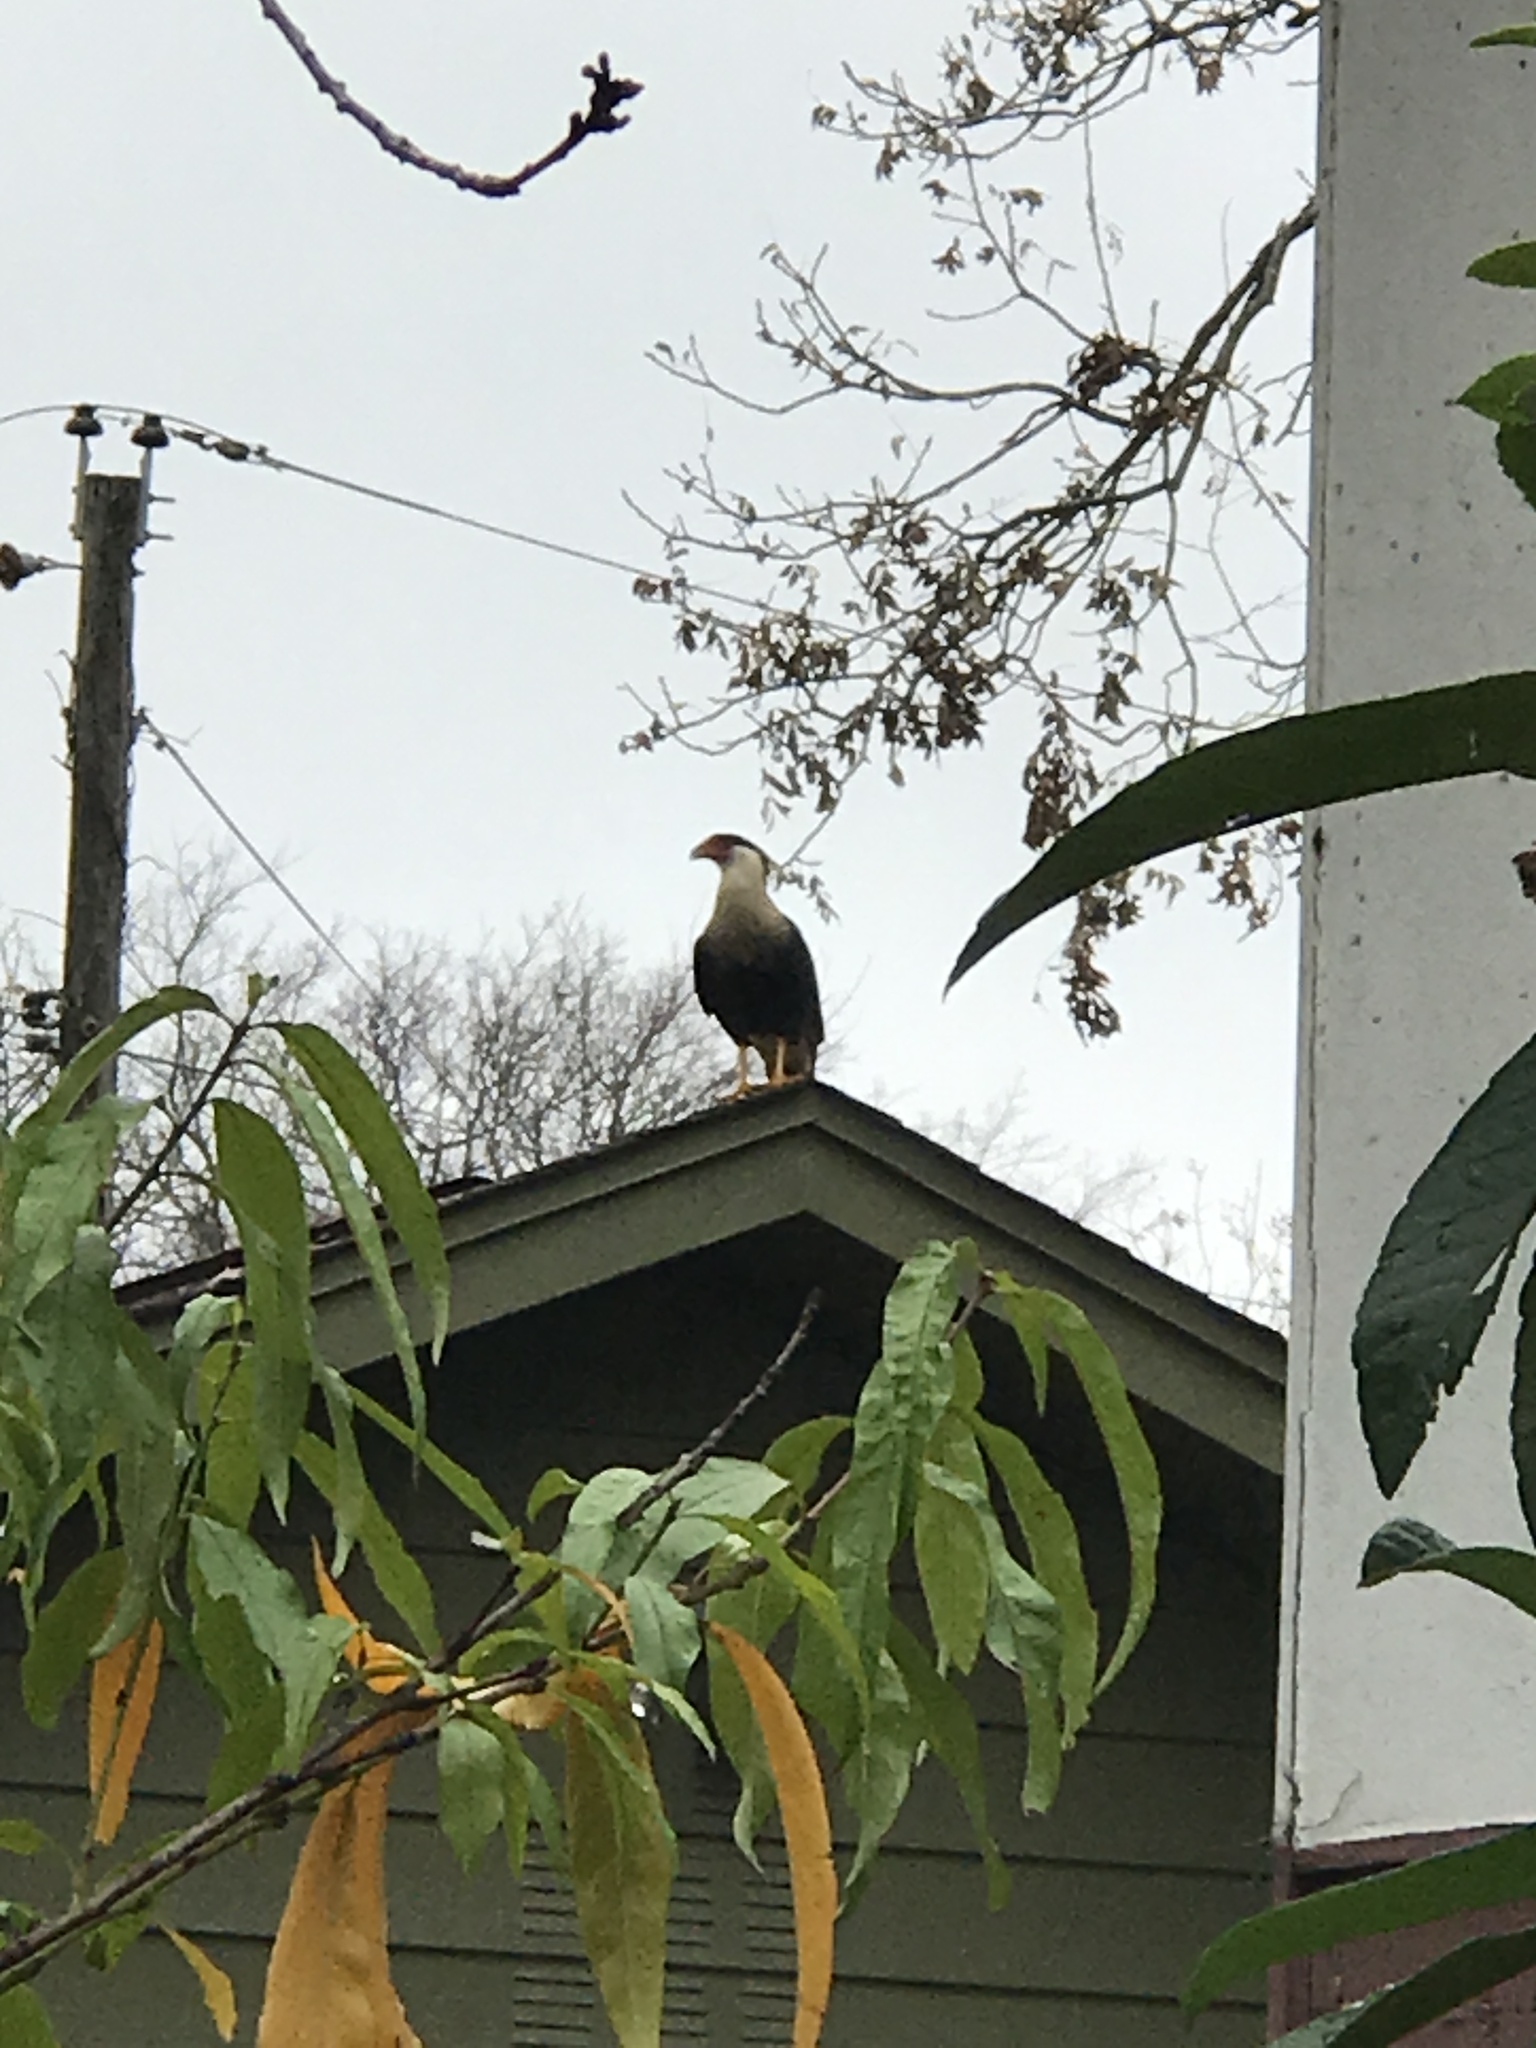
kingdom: Animalia
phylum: Chordata
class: Aves
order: Falconiformes
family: Falconidae
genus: Caracara
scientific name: Caracara plancus
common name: Southern caracara
